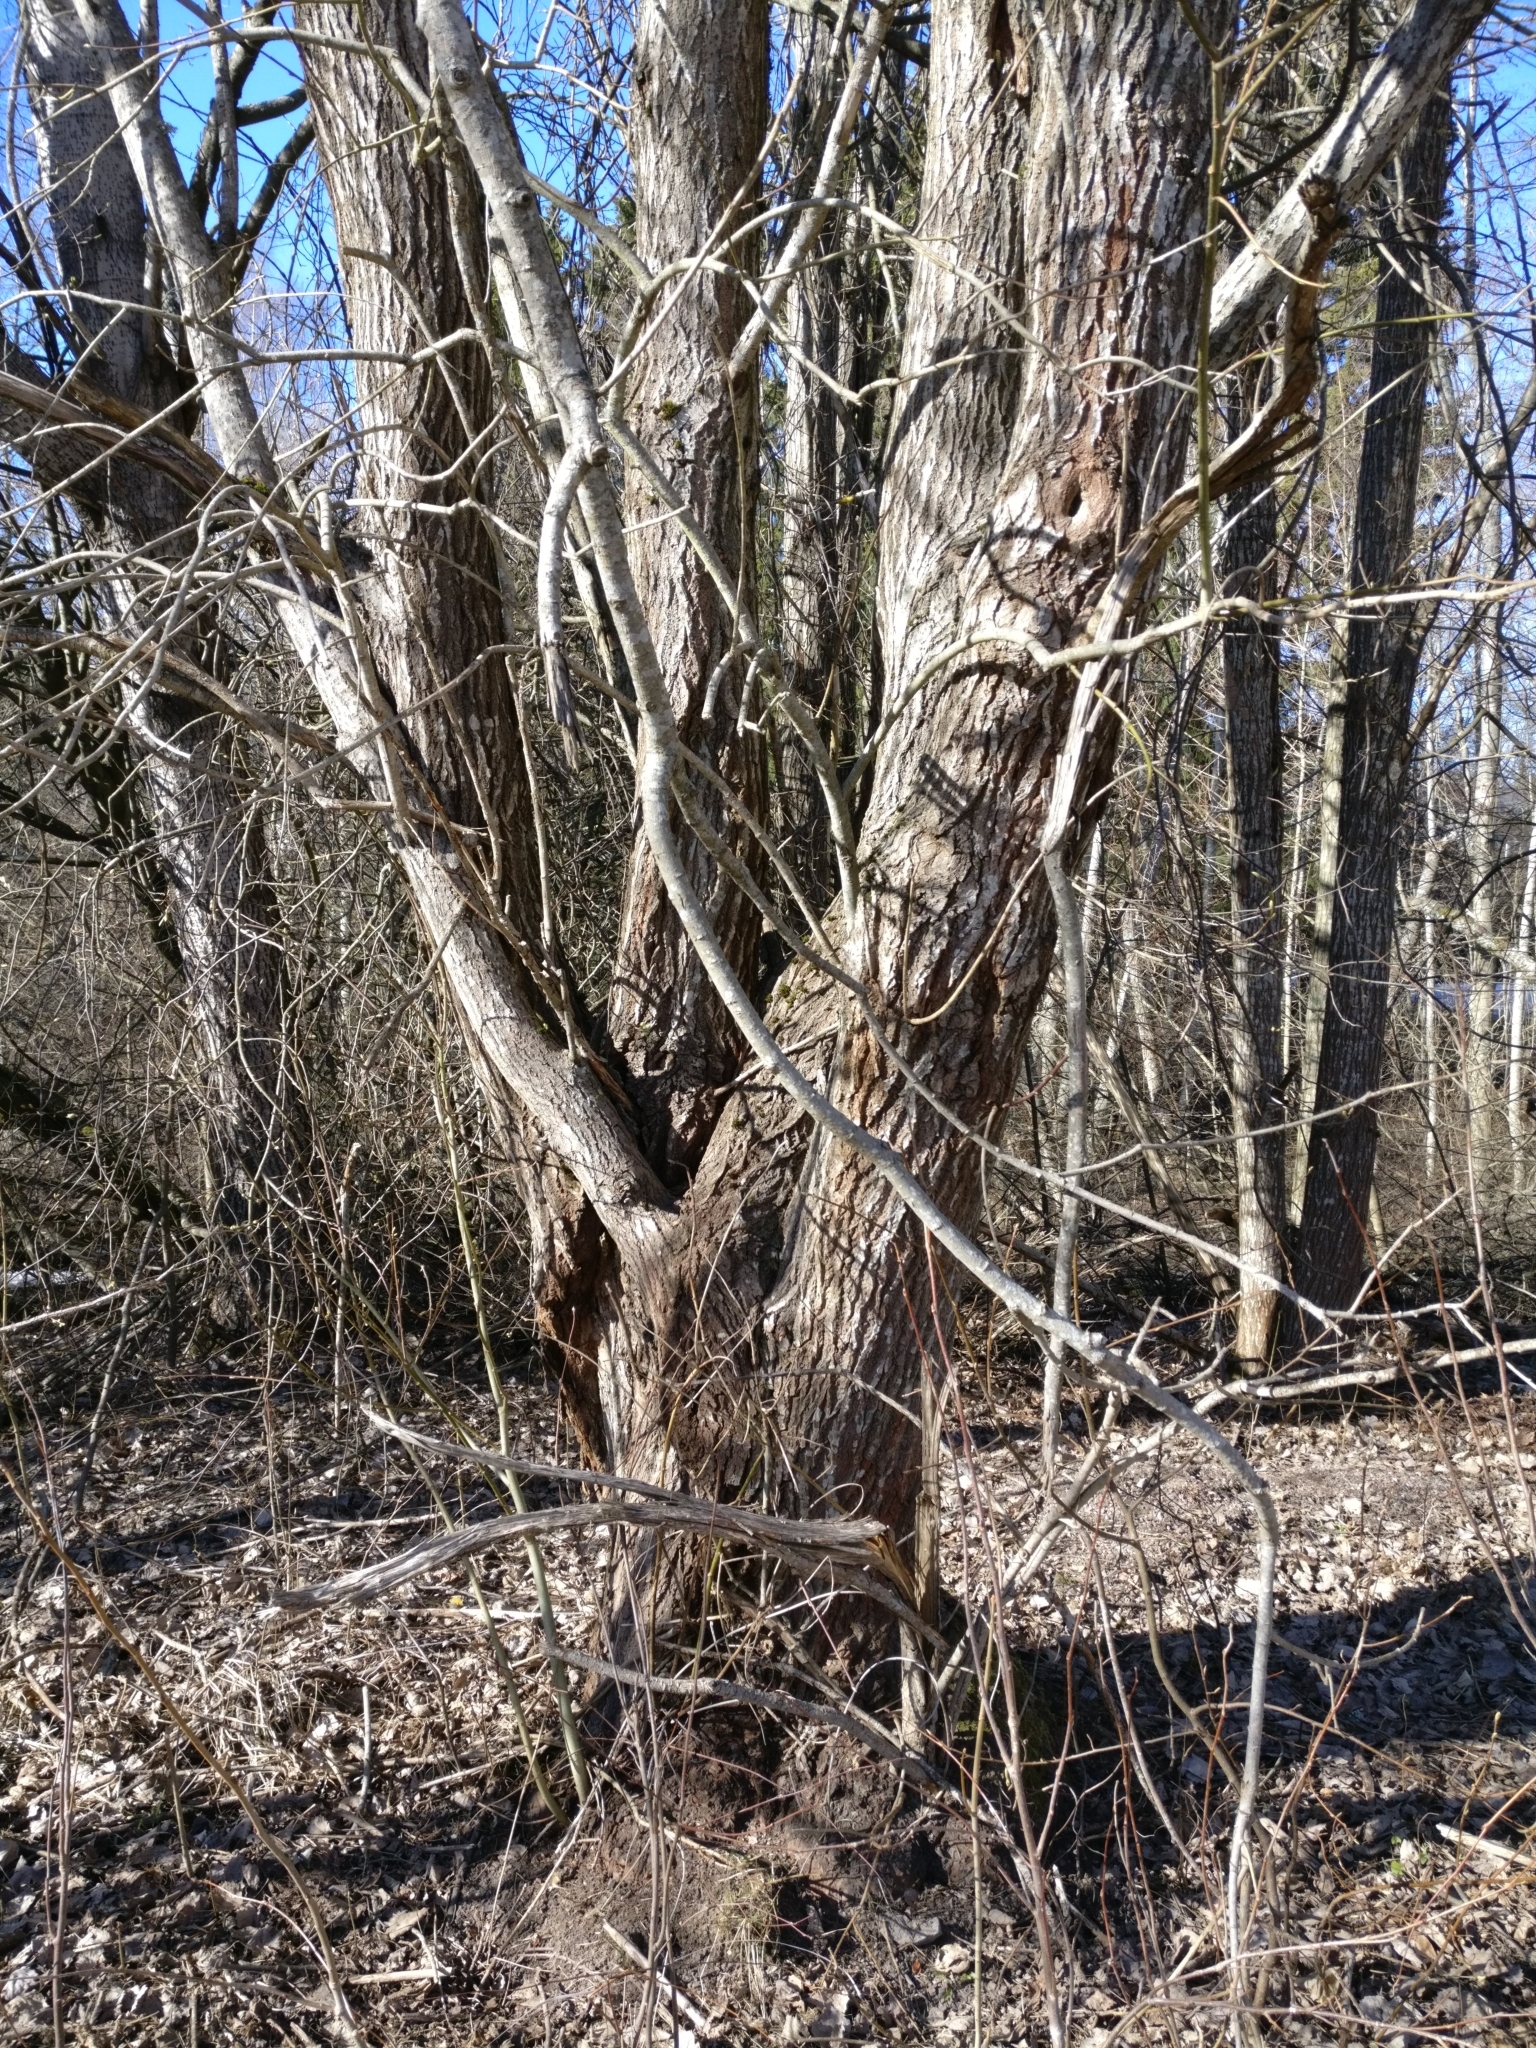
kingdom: Plantae
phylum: Tracheophyta
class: Magnoliopsida
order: Malpighiales
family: Salicaceae
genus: Salix
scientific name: Salix caprea
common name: Goat willow
